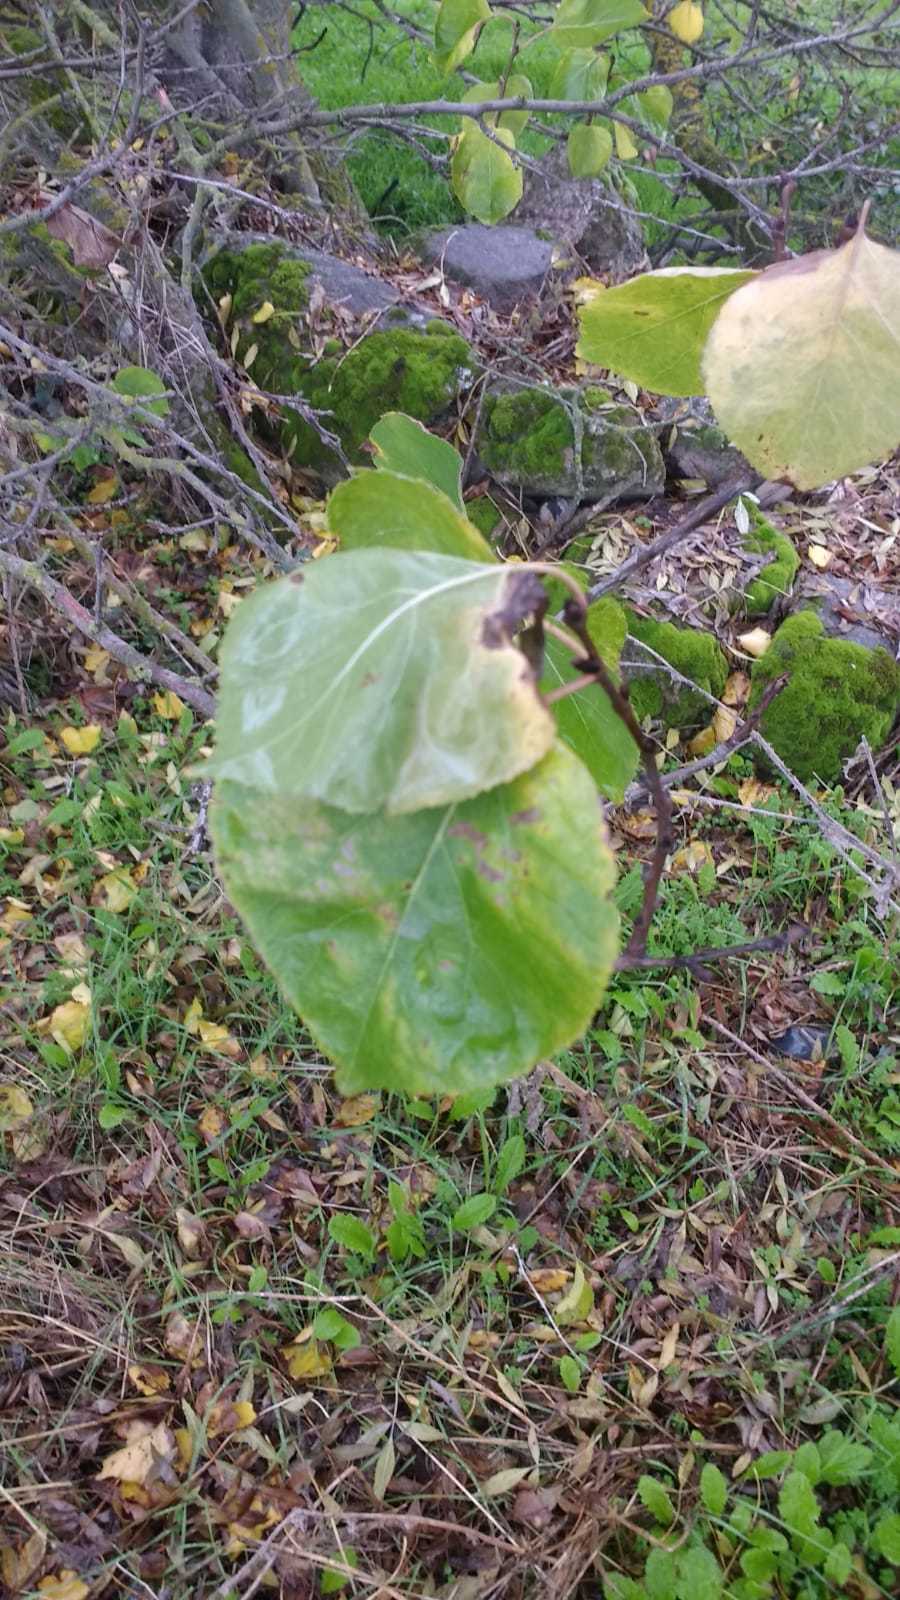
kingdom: Plantae
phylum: Tracheophyta
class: Magnoliopsida
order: Rosales
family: Rosaceae
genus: Prunus
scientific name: Prunus armeniaca
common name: Apricot
